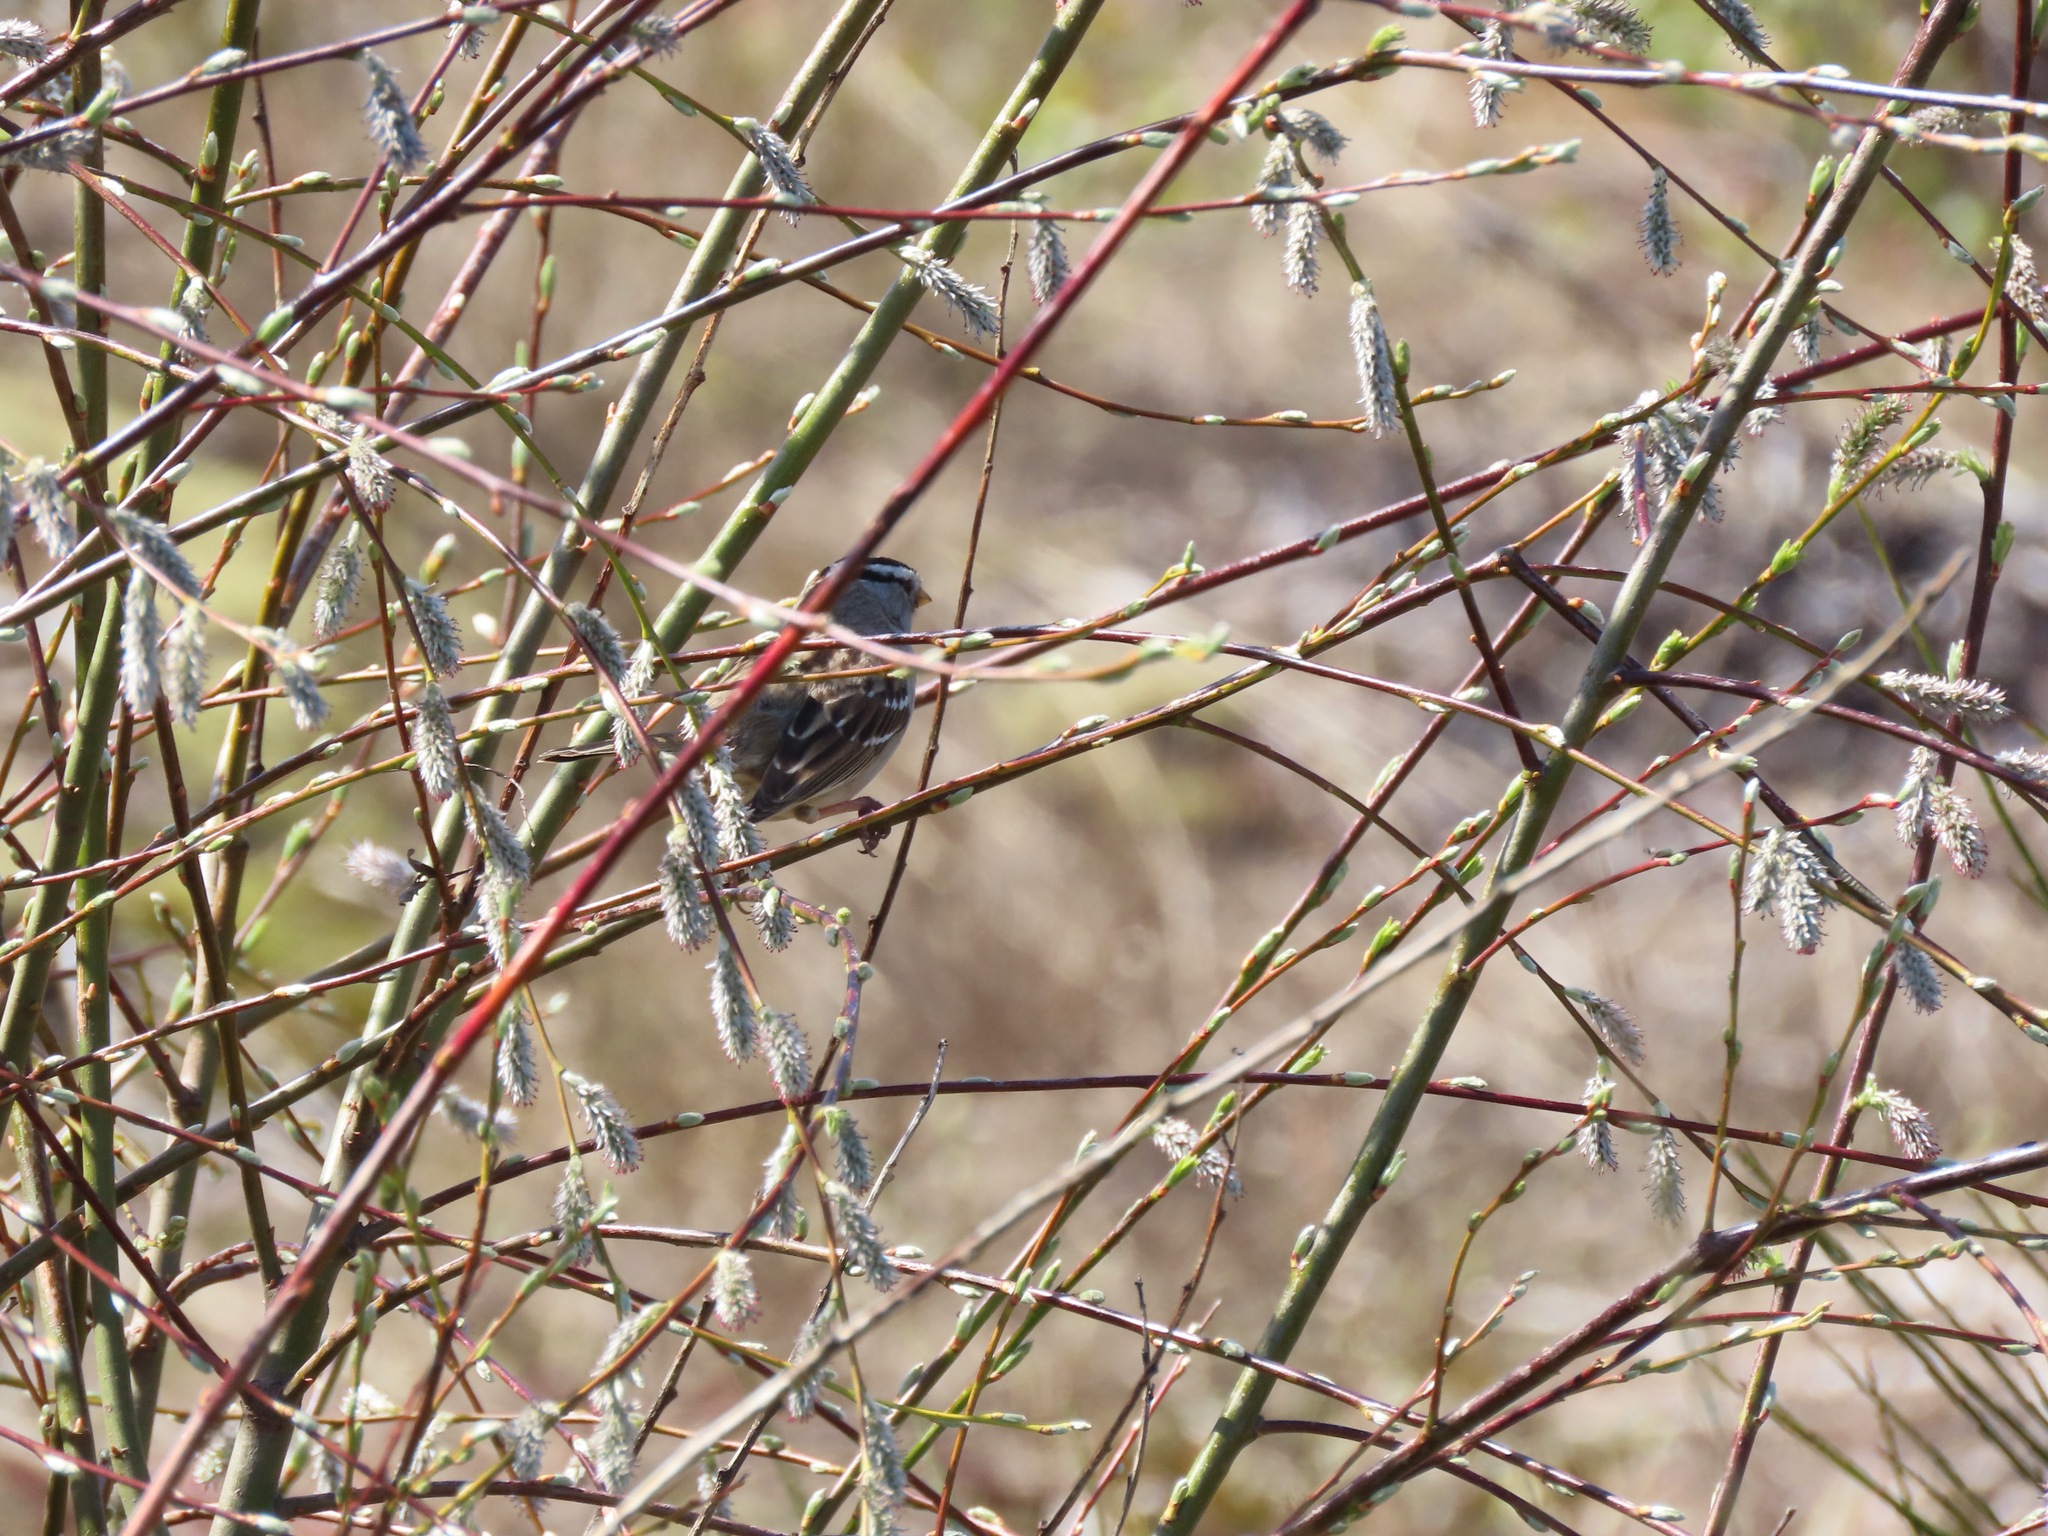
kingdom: Animalia
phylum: Chordata
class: Aves
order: Passeriformes
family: Passerellidae
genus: Zonotrichia
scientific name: Zonotrichia leucophrys
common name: White-crowned sparrow
